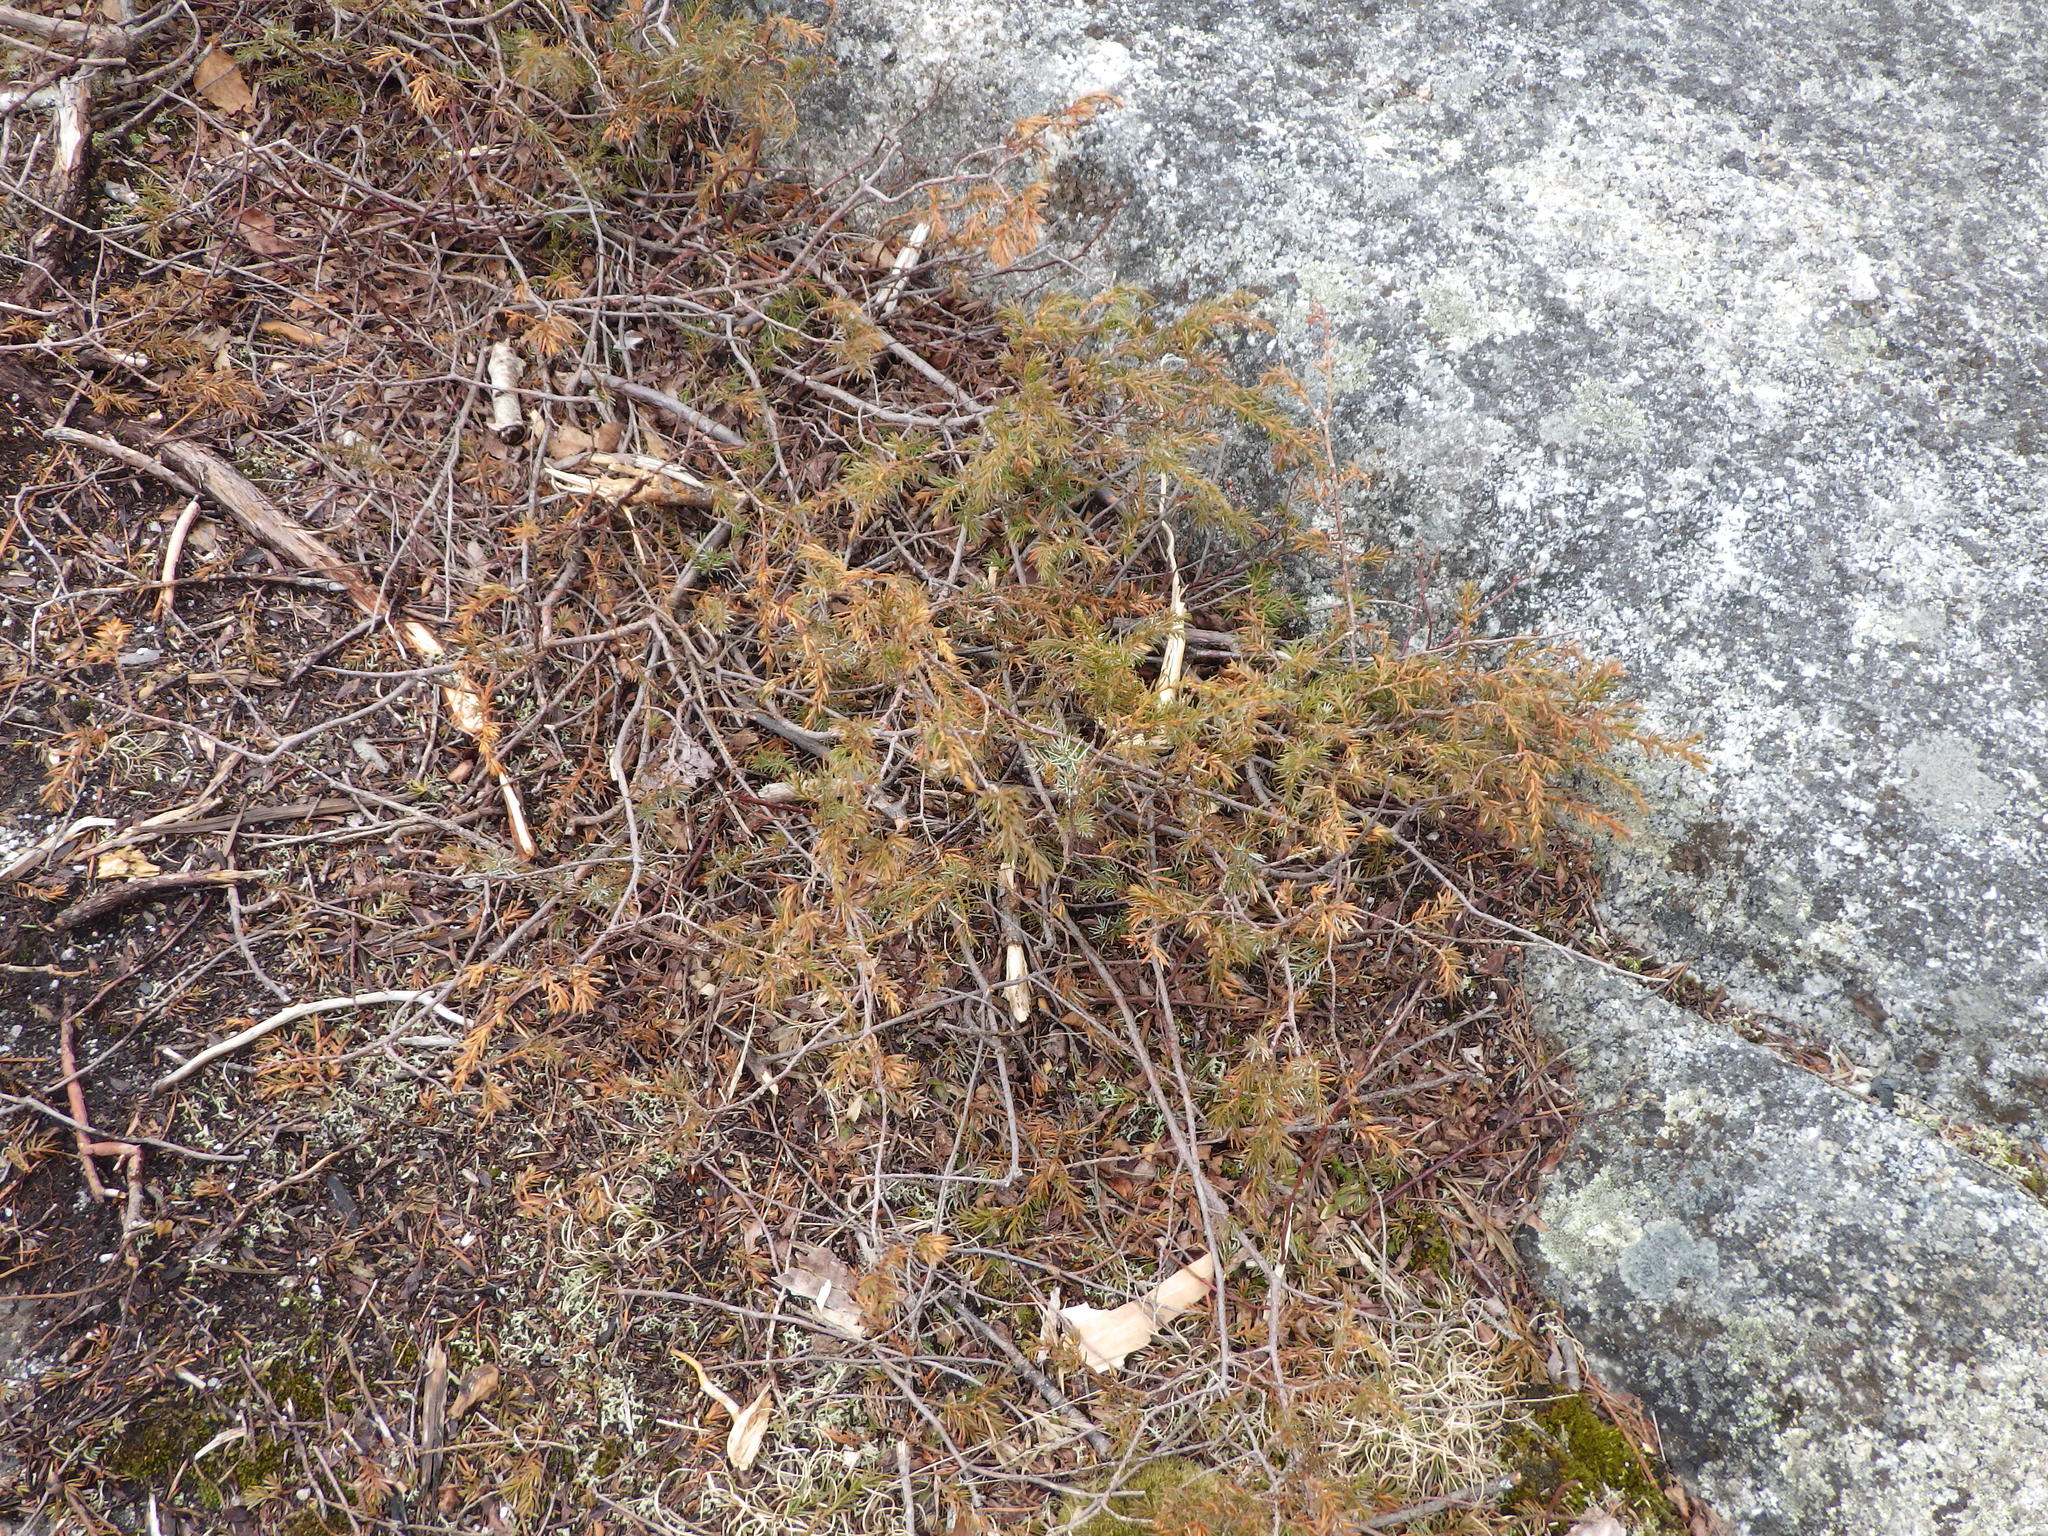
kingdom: Plantae
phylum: Tracheophyta
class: Pinopsida
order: Pinales
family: Cupressaceae
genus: Juniperus
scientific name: Juniperus communis
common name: Common juniper
